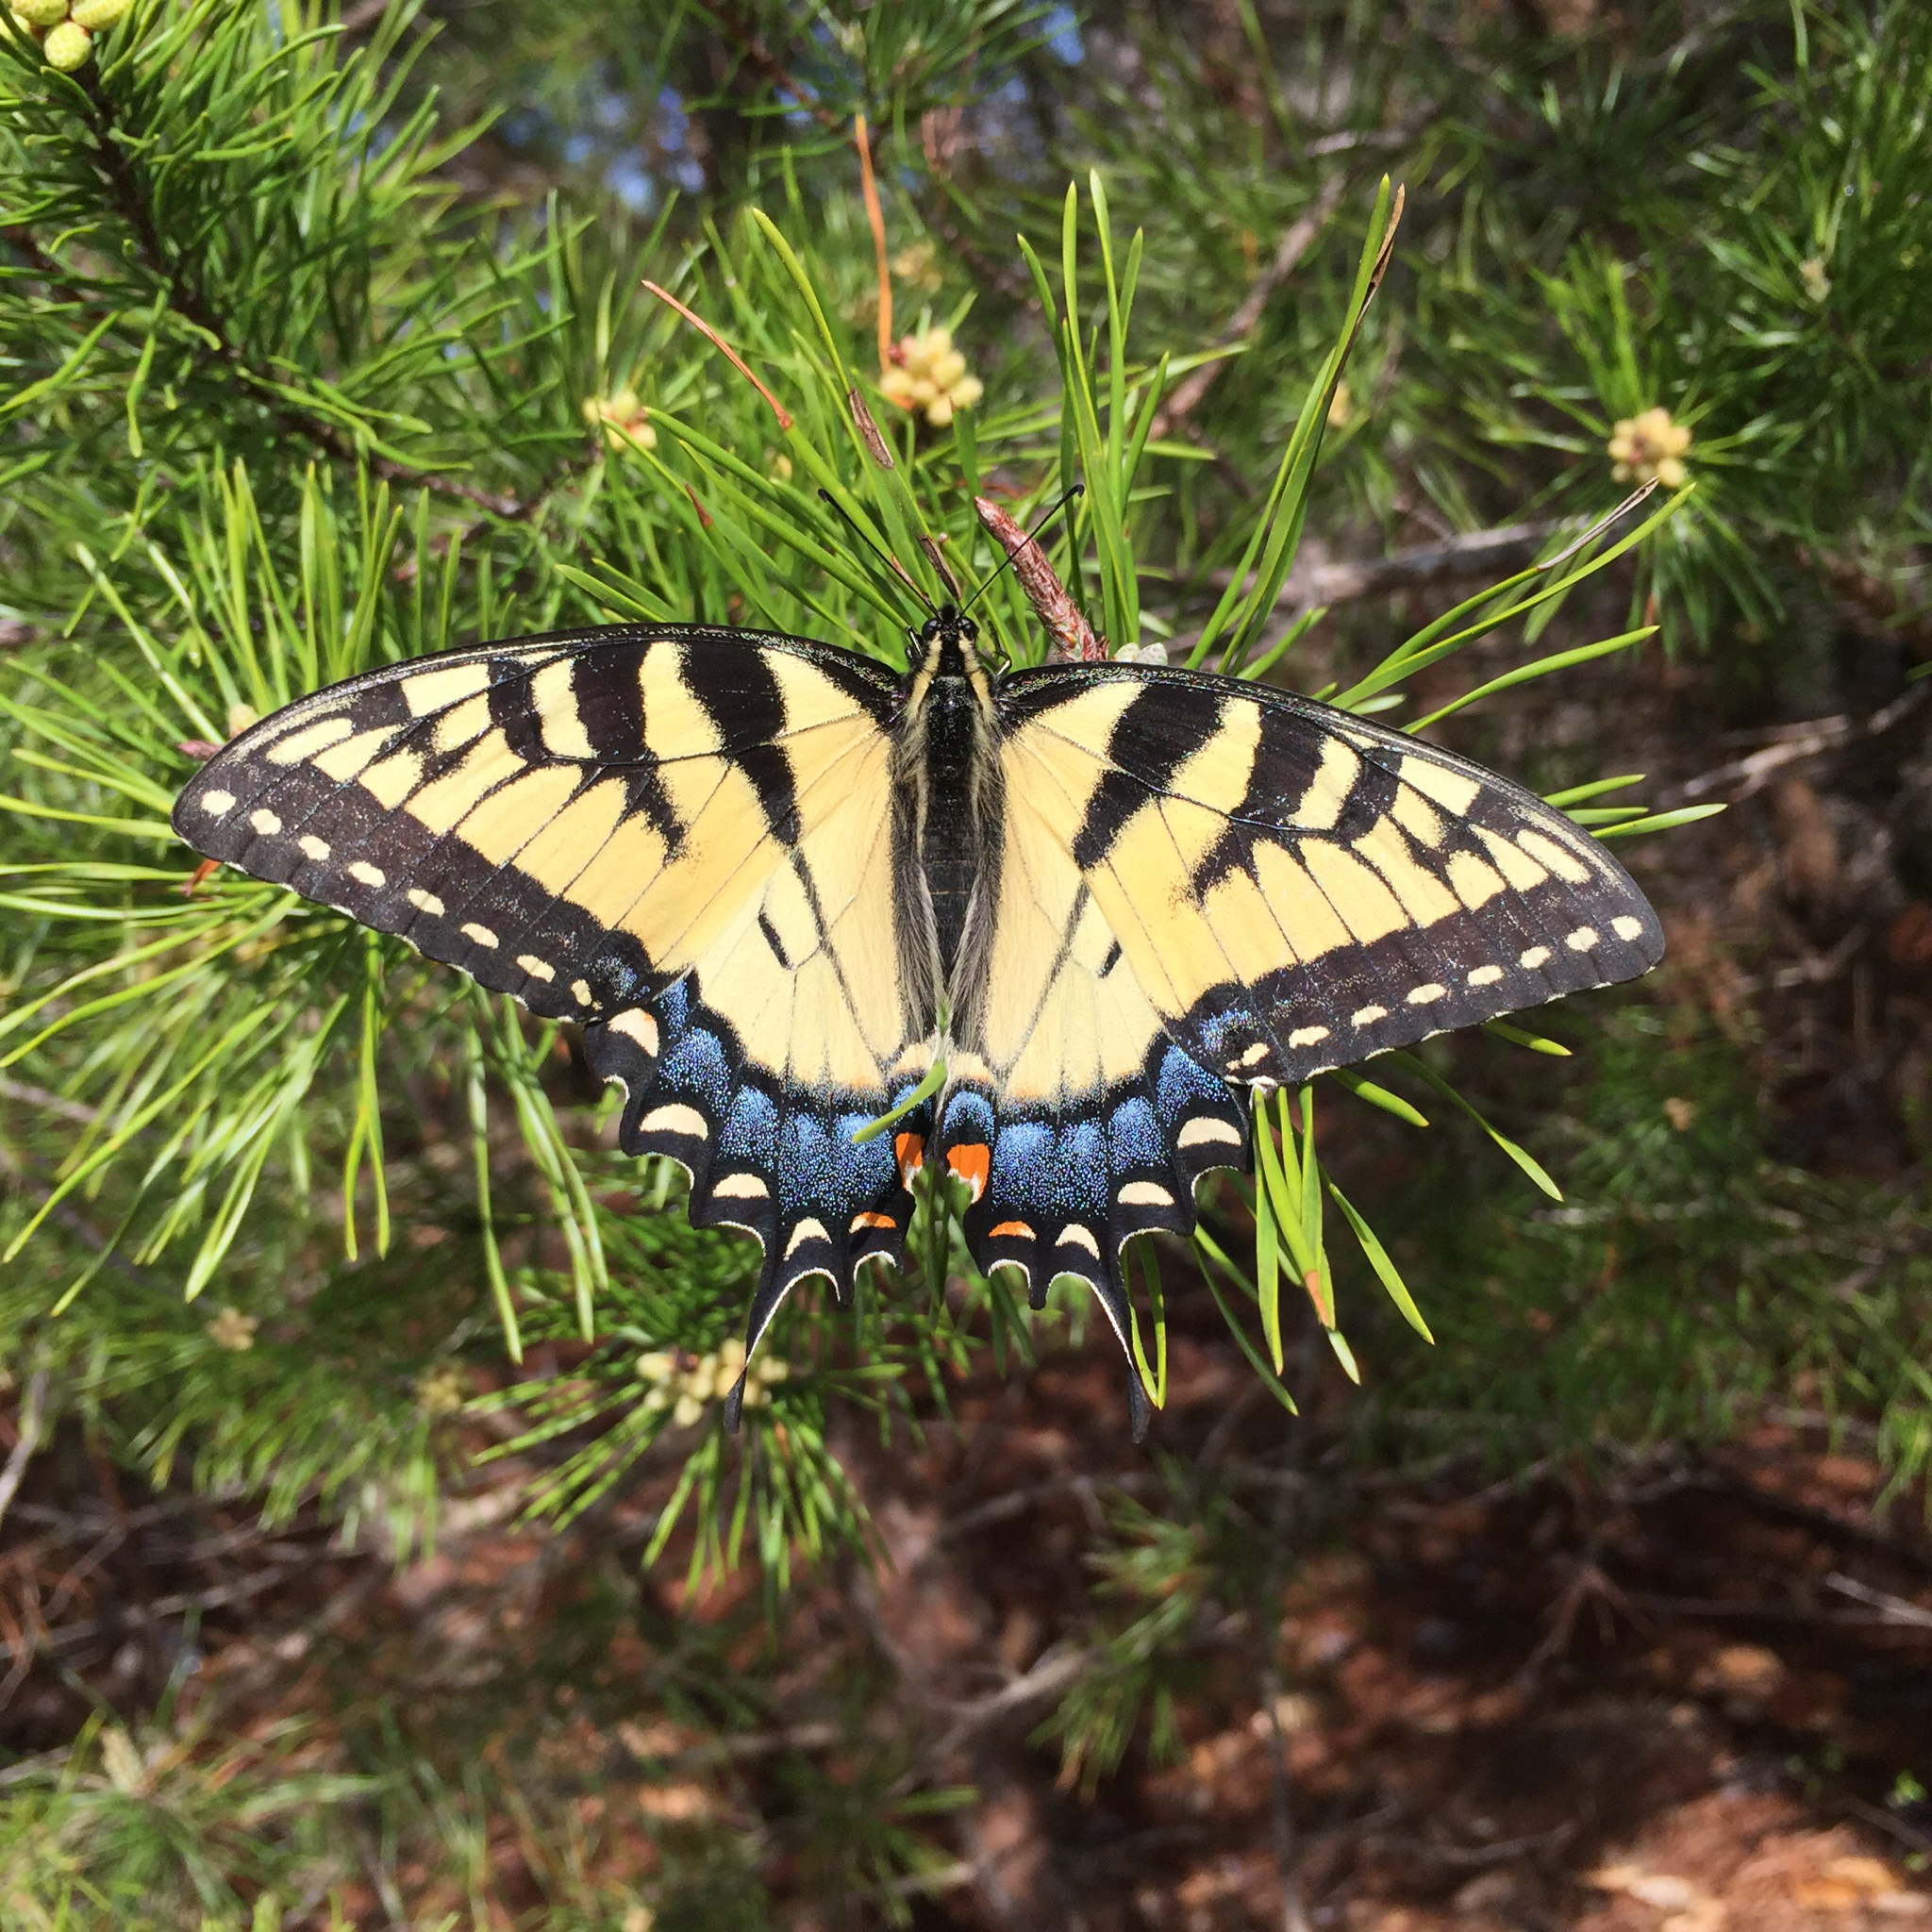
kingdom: Animalia
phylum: Arthropoda
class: Insecta
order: Lepidoptera
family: Papilionidae
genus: Papilio
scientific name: Papilio glaucus
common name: Tiger swallowtail
